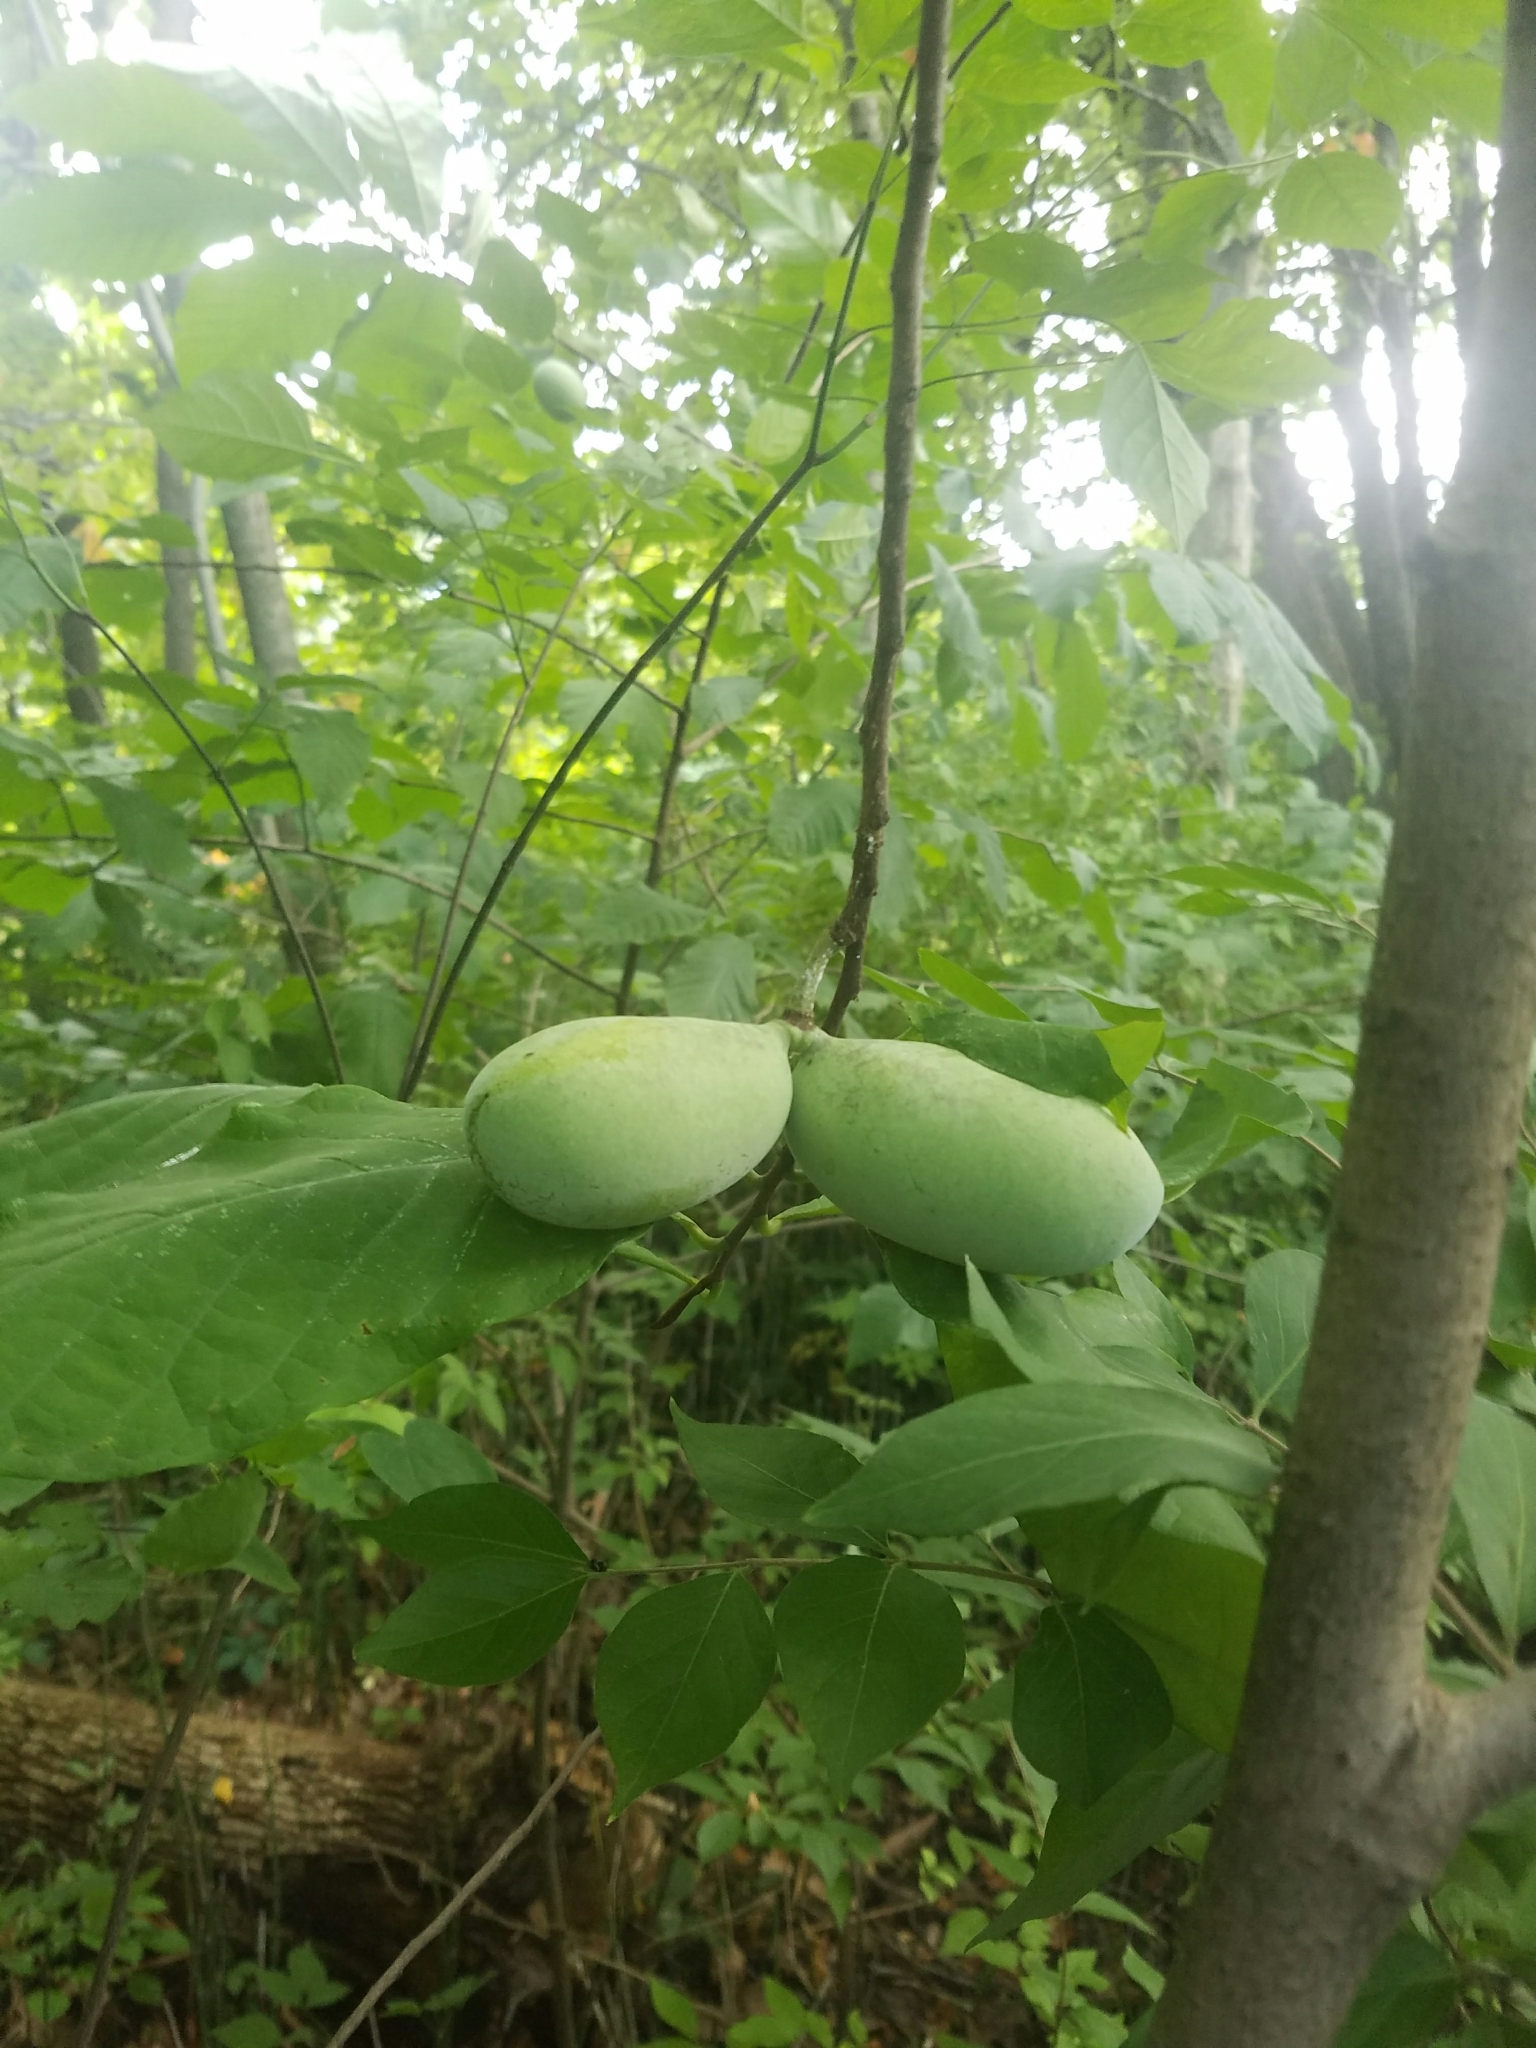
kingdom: Plantae
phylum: Tracheophyta
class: Magnoliopsida
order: Magnoliales
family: Annonaceae
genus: Asimina
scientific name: Asimina triloba
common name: Dog-banana
